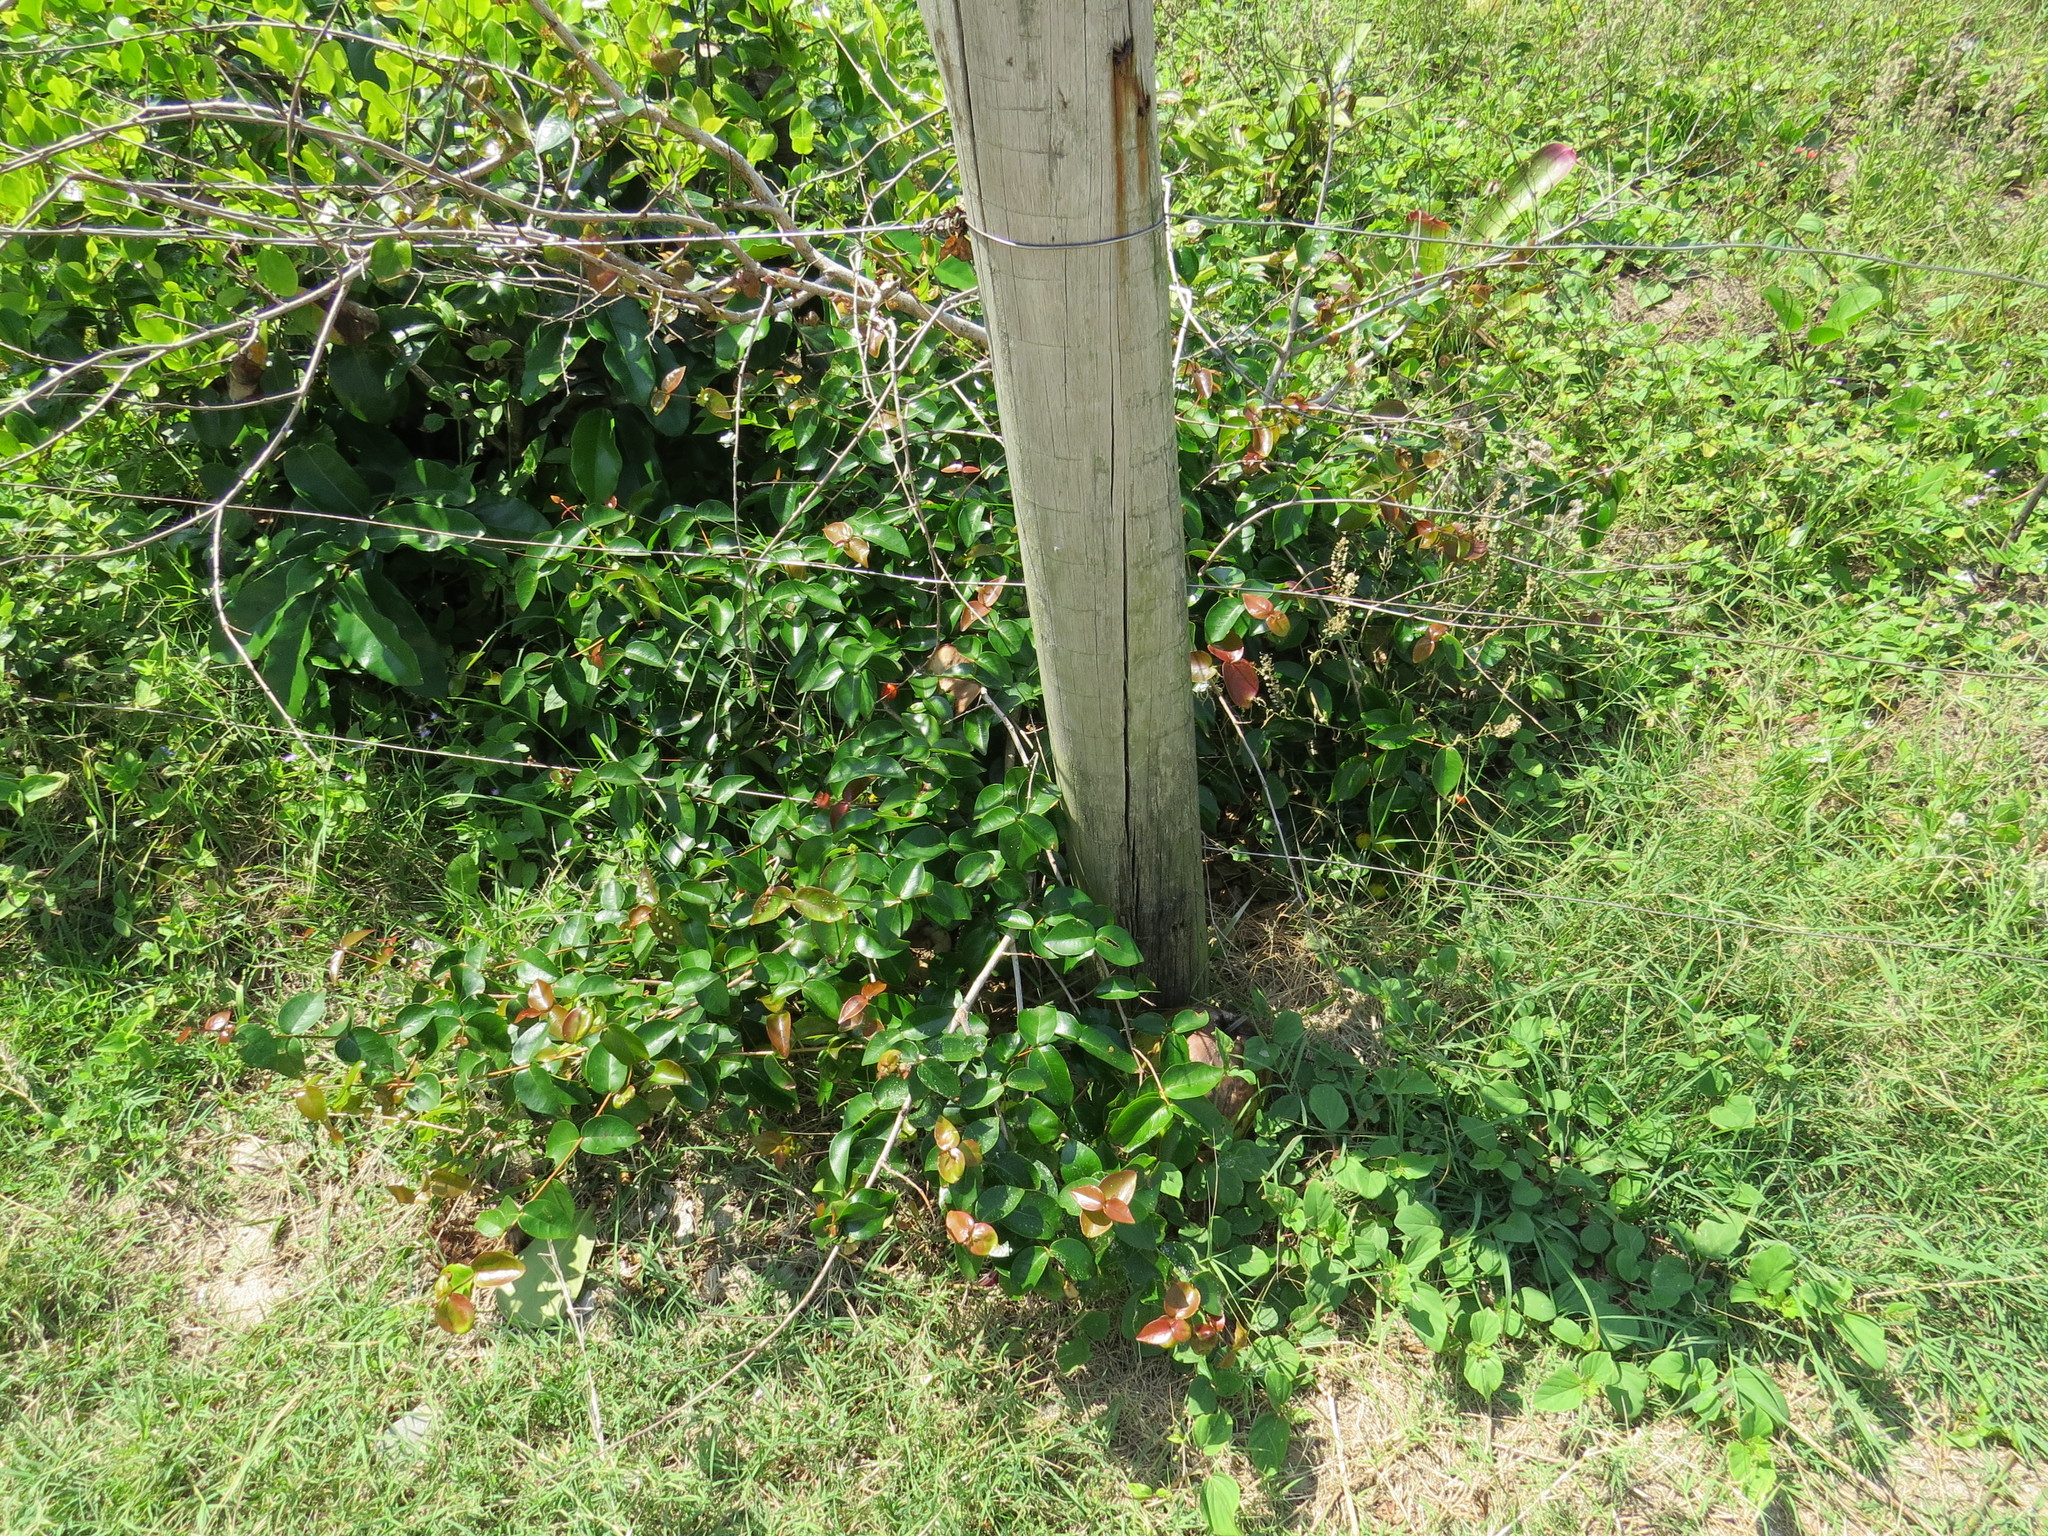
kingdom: Plantae
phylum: Tracheophyta
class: Magnoliopsida
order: Myrtales
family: Myrtaceae
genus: Eugenia
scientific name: Eugenia uniflora
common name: Surinam cherry
